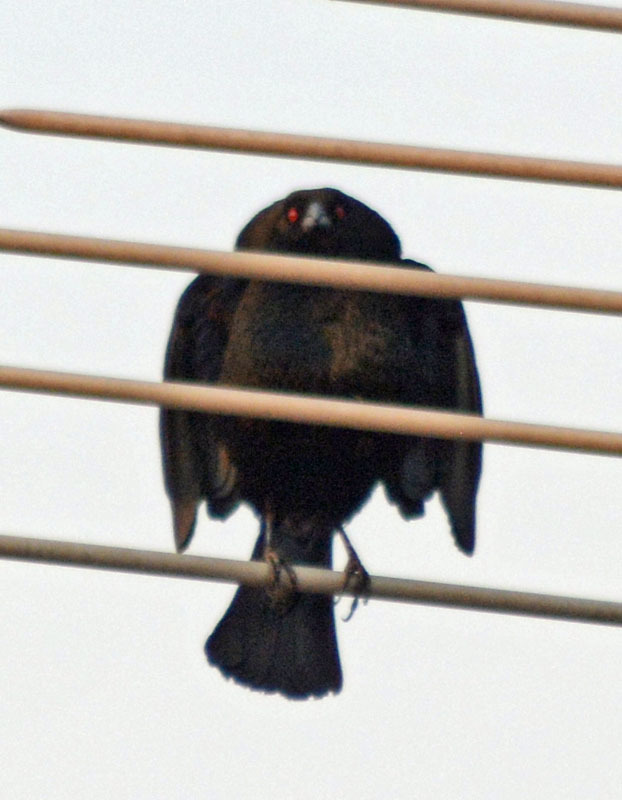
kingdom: Animalia
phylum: Chordata
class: Aves
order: Passeriformes
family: Icteridae
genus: Molothrus
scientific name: Molothrus aeneus
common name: Bronzed cowbird
